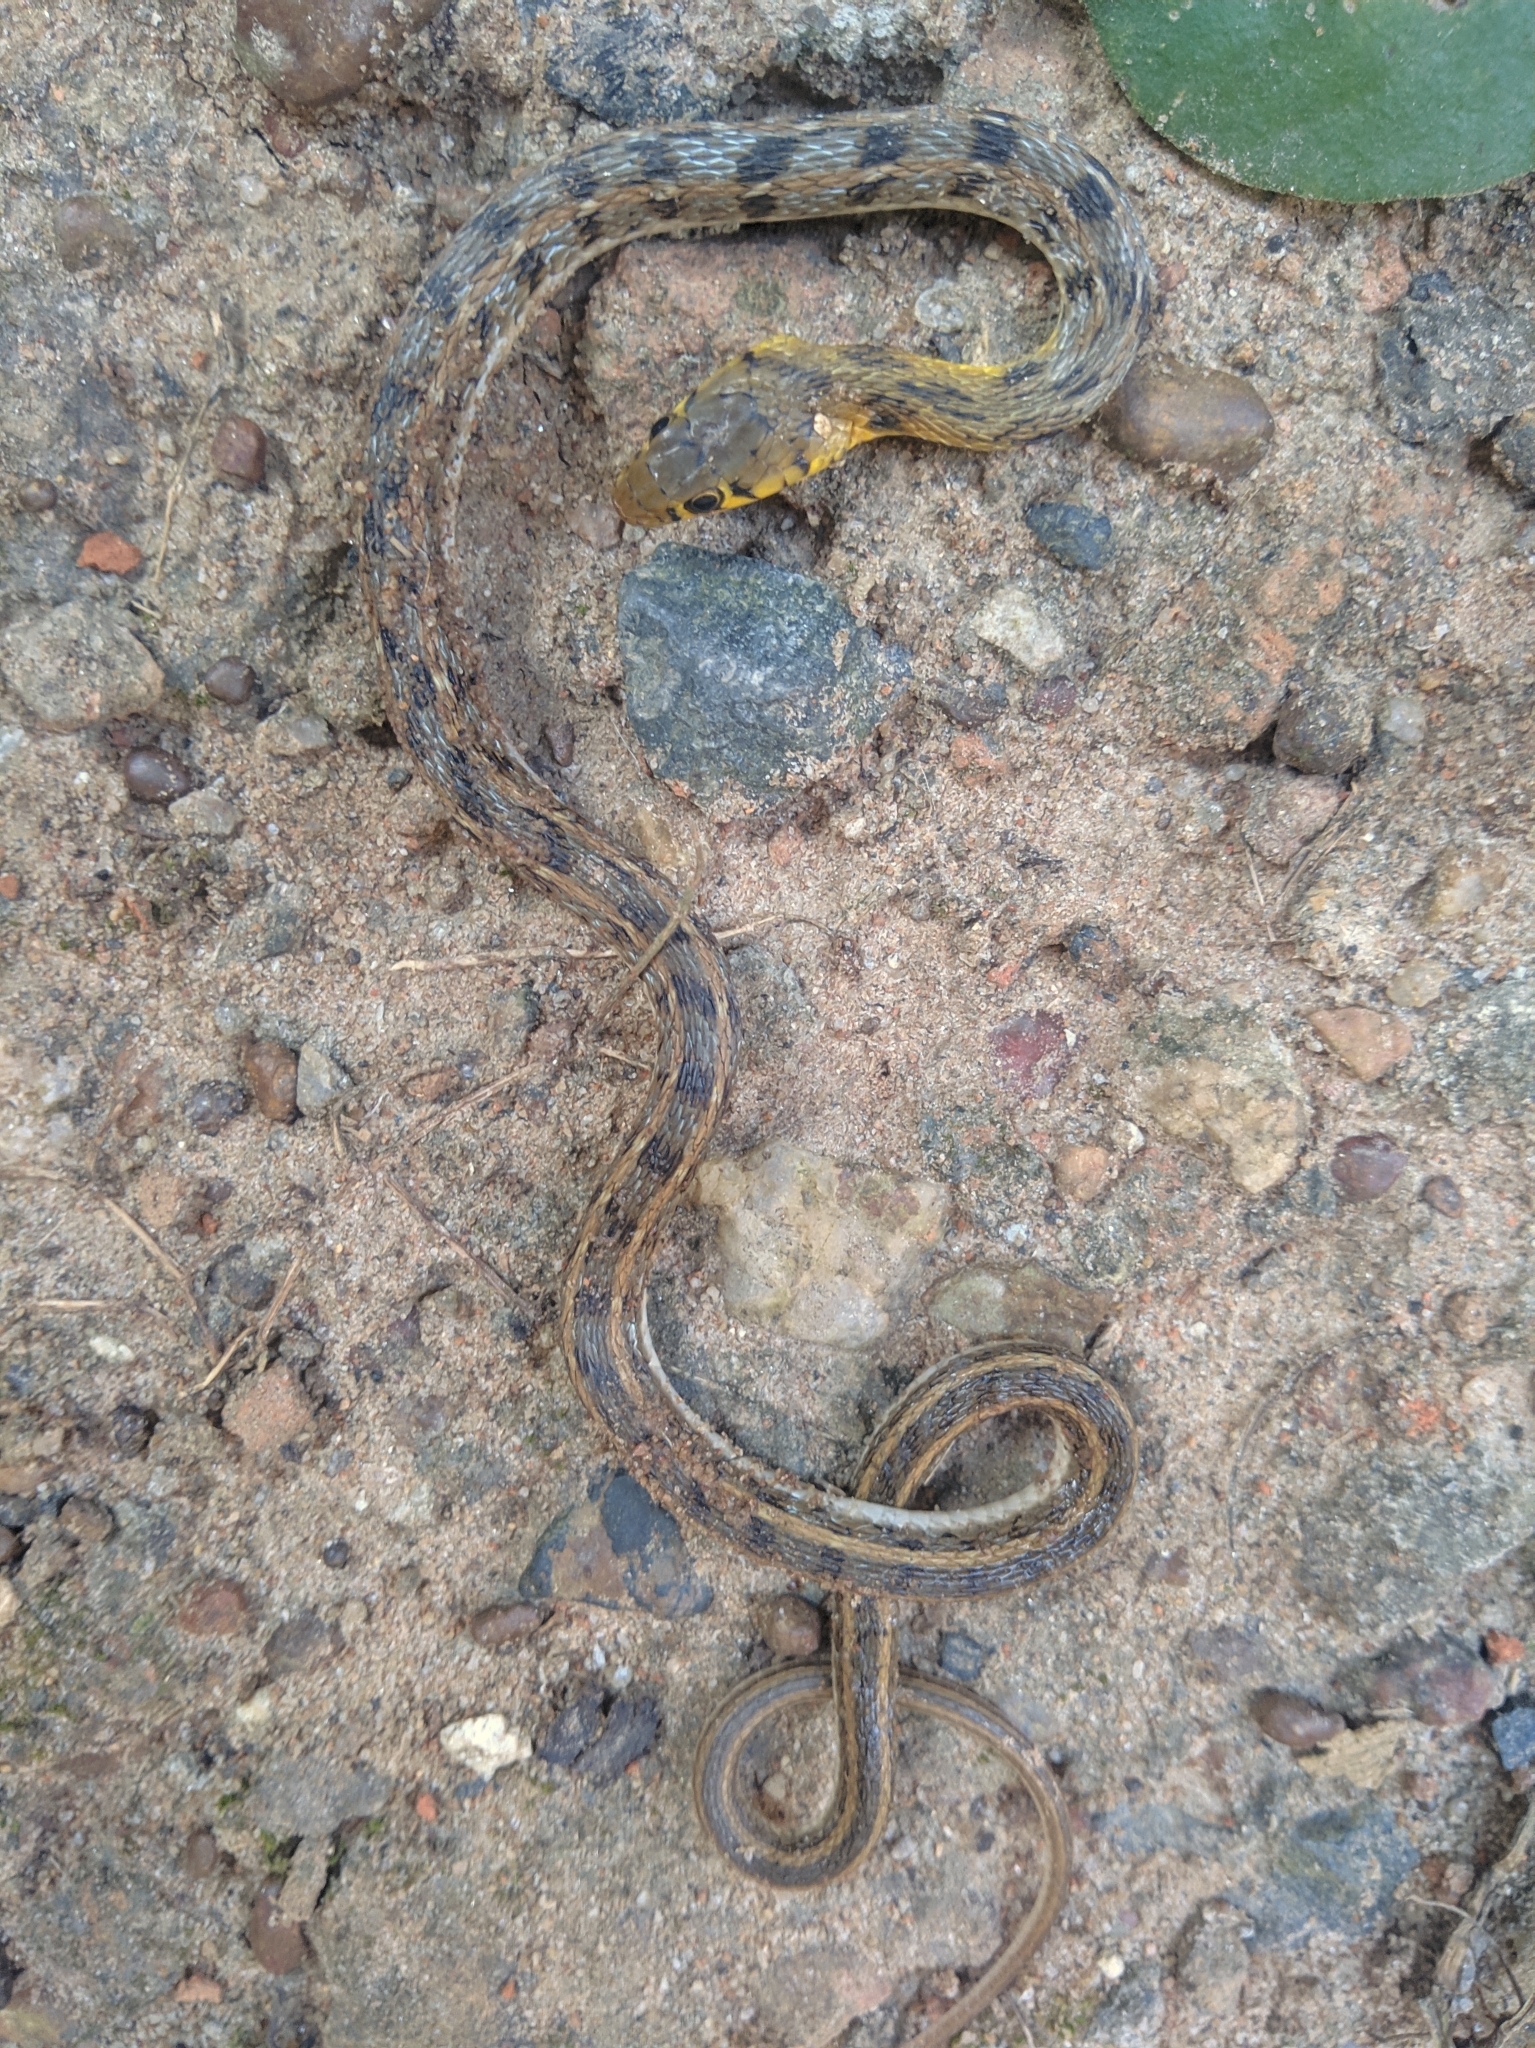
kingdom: Animalia
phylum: Chordata
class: Squamata
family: Colubridae
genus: Amphiesma
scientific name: Amphiesma stolatum
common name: Buff striped keelback
